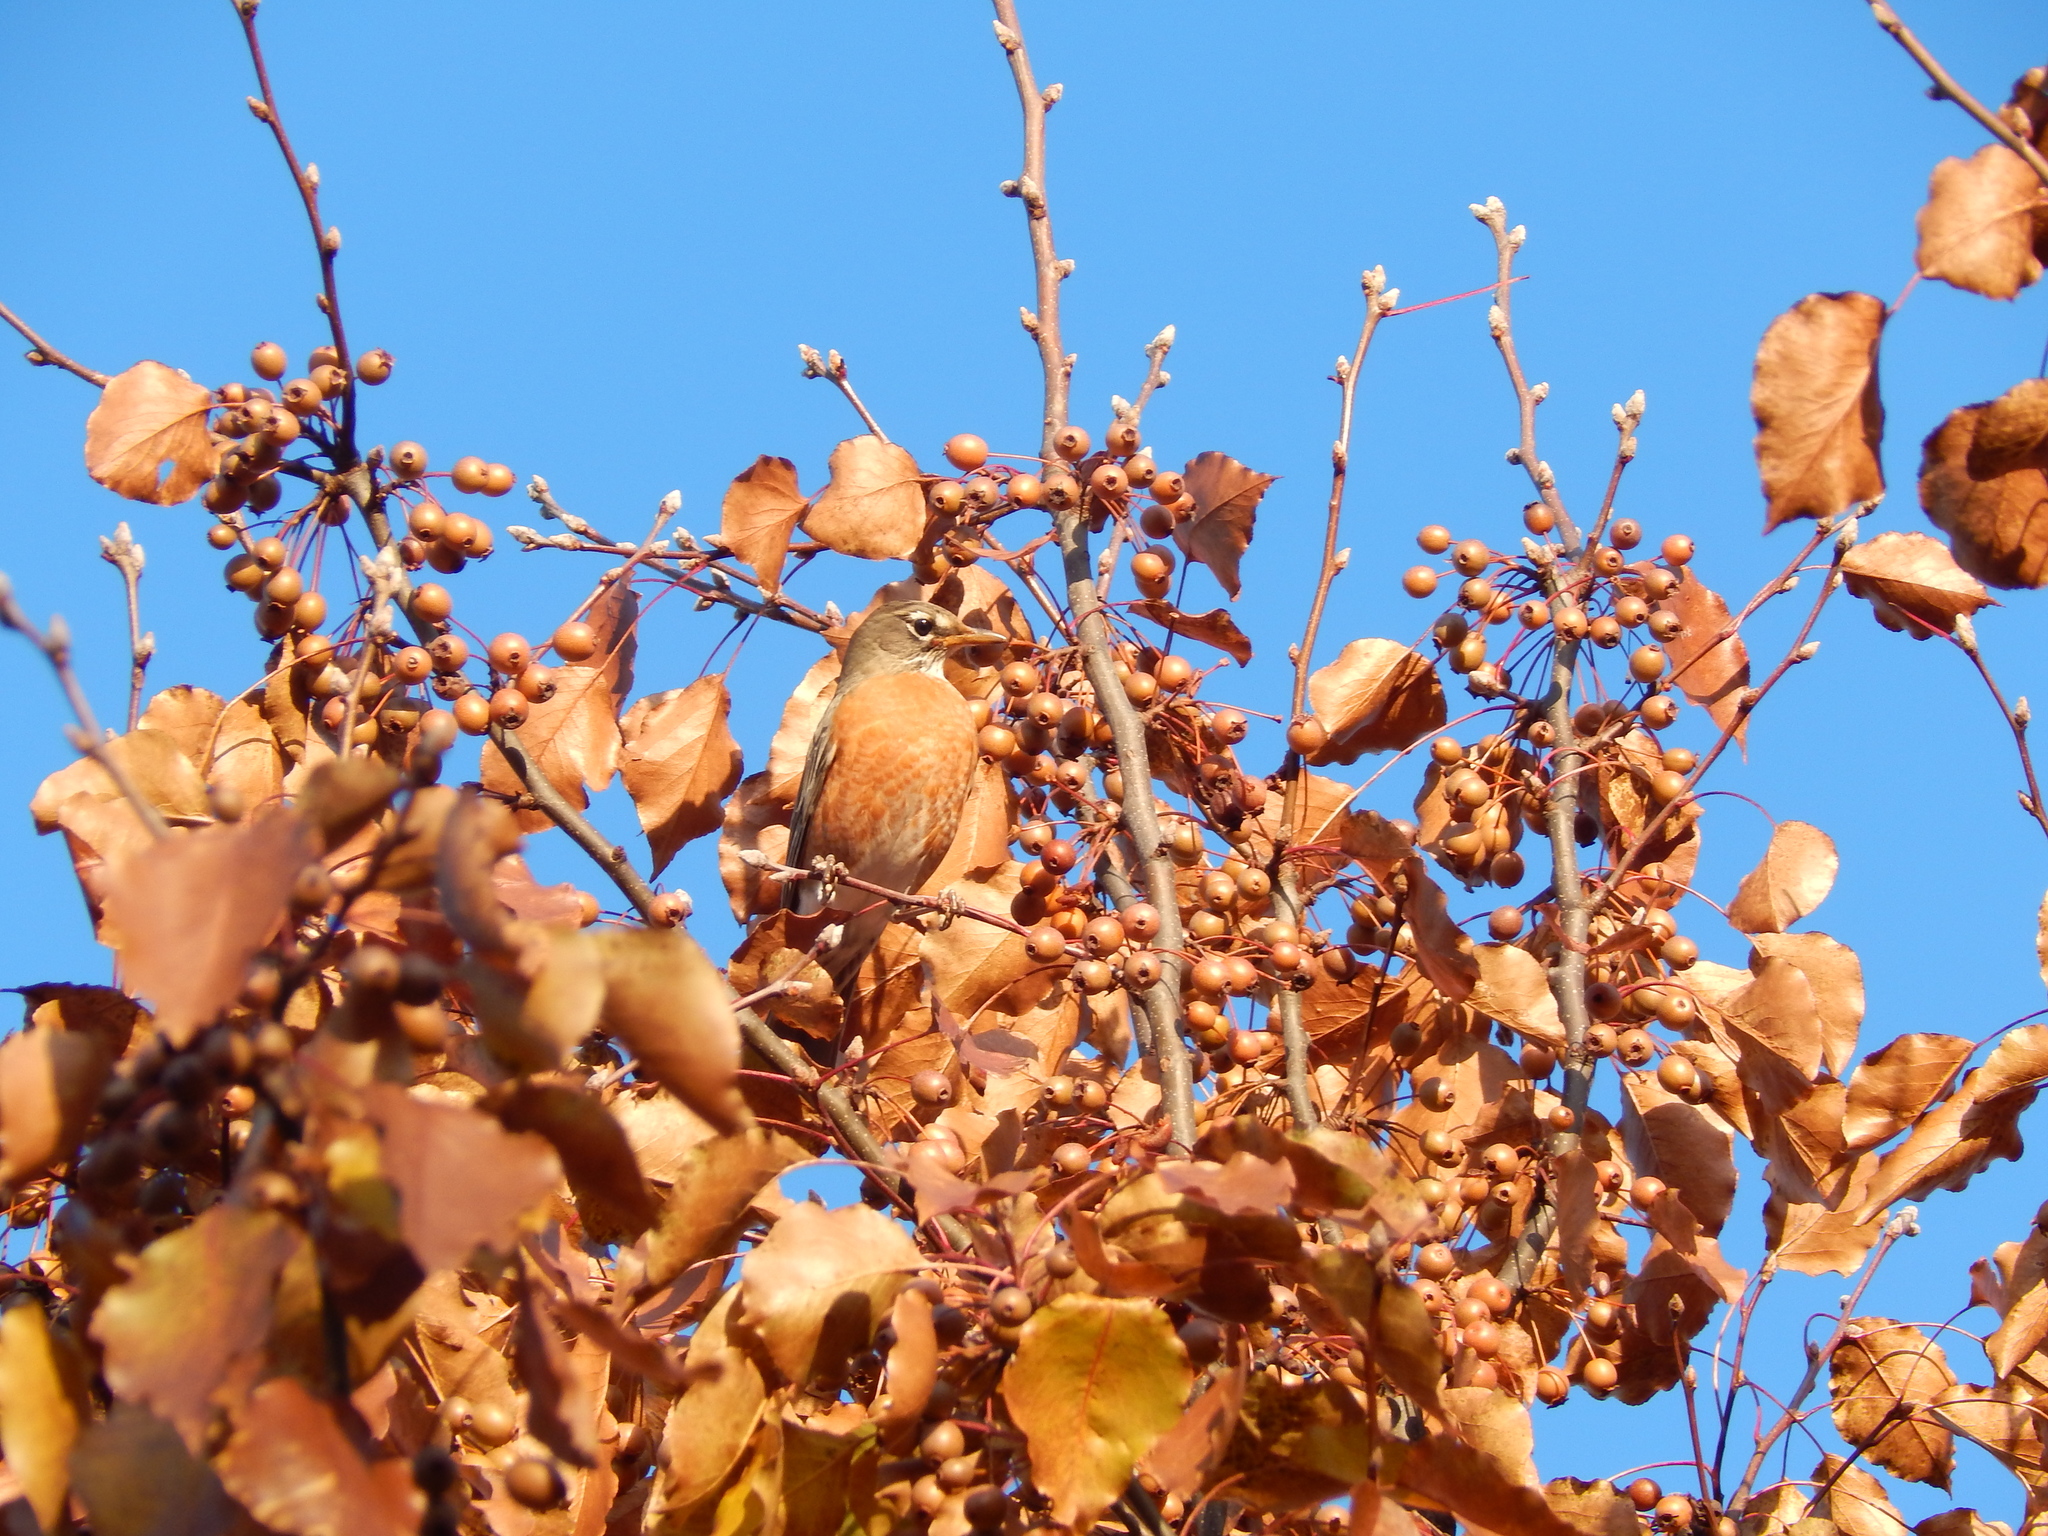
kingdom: Animalia
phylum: Chordata
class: Aves
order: Passeriformes
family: Turdidae
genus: Turdus
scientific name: Turdus migratorius
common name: American robin
